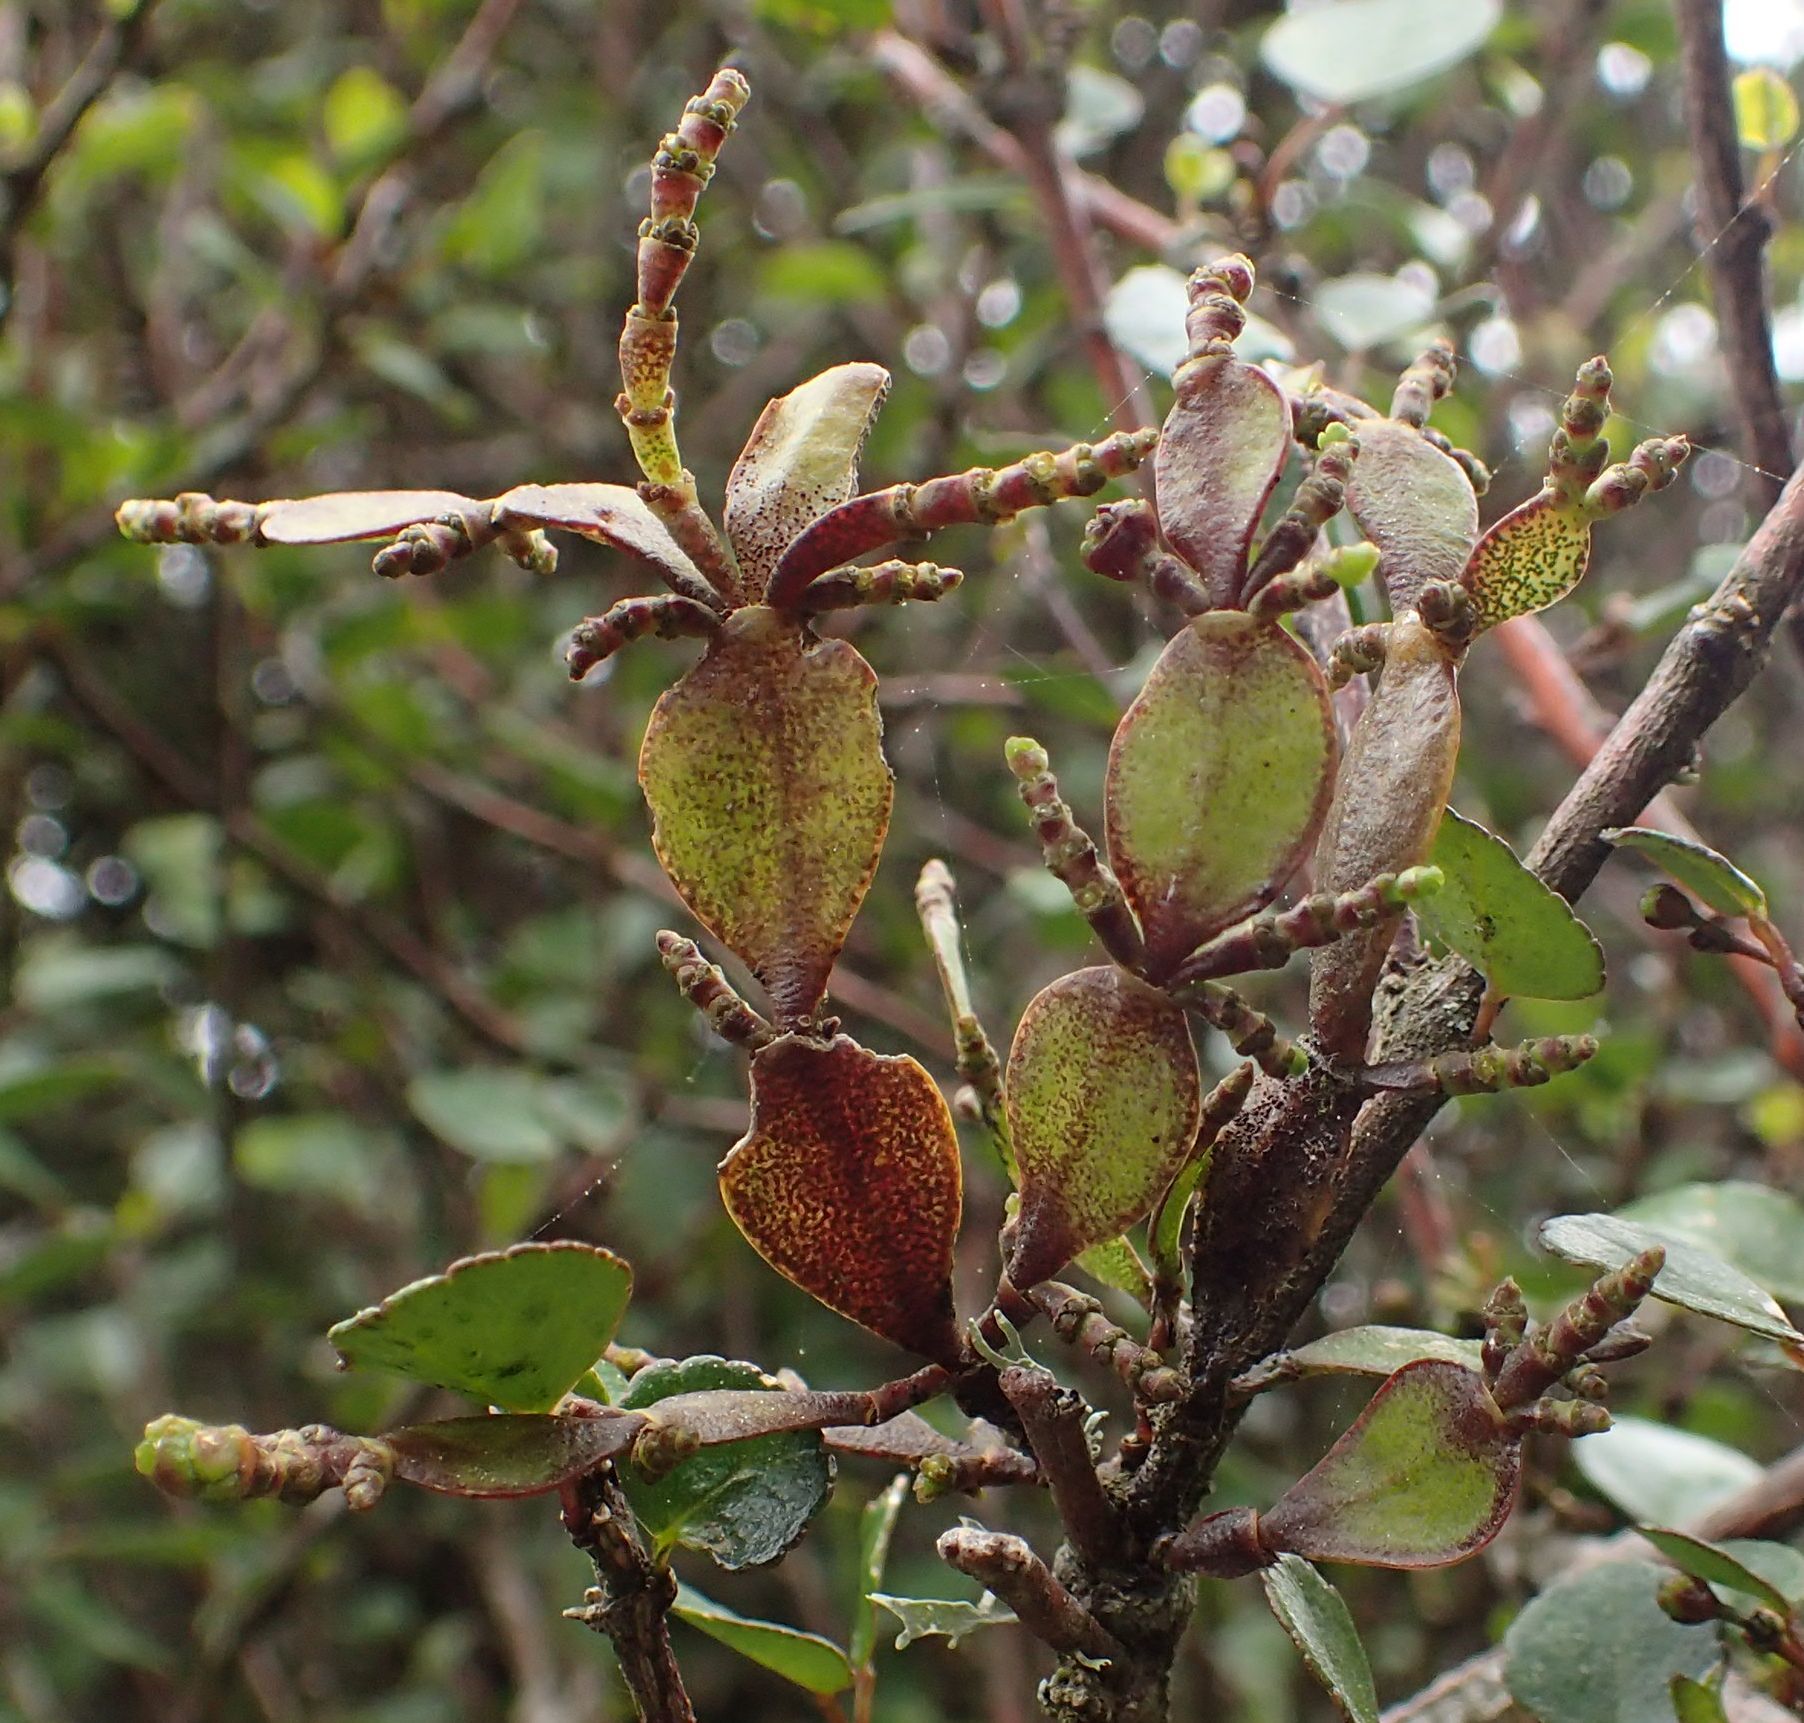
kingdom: Plantae
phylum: Tracheophyta
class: Magnoliopsida
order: Santalales
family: Viscaceae
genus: Korthalsella
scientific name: Korthalsella lindsayi
